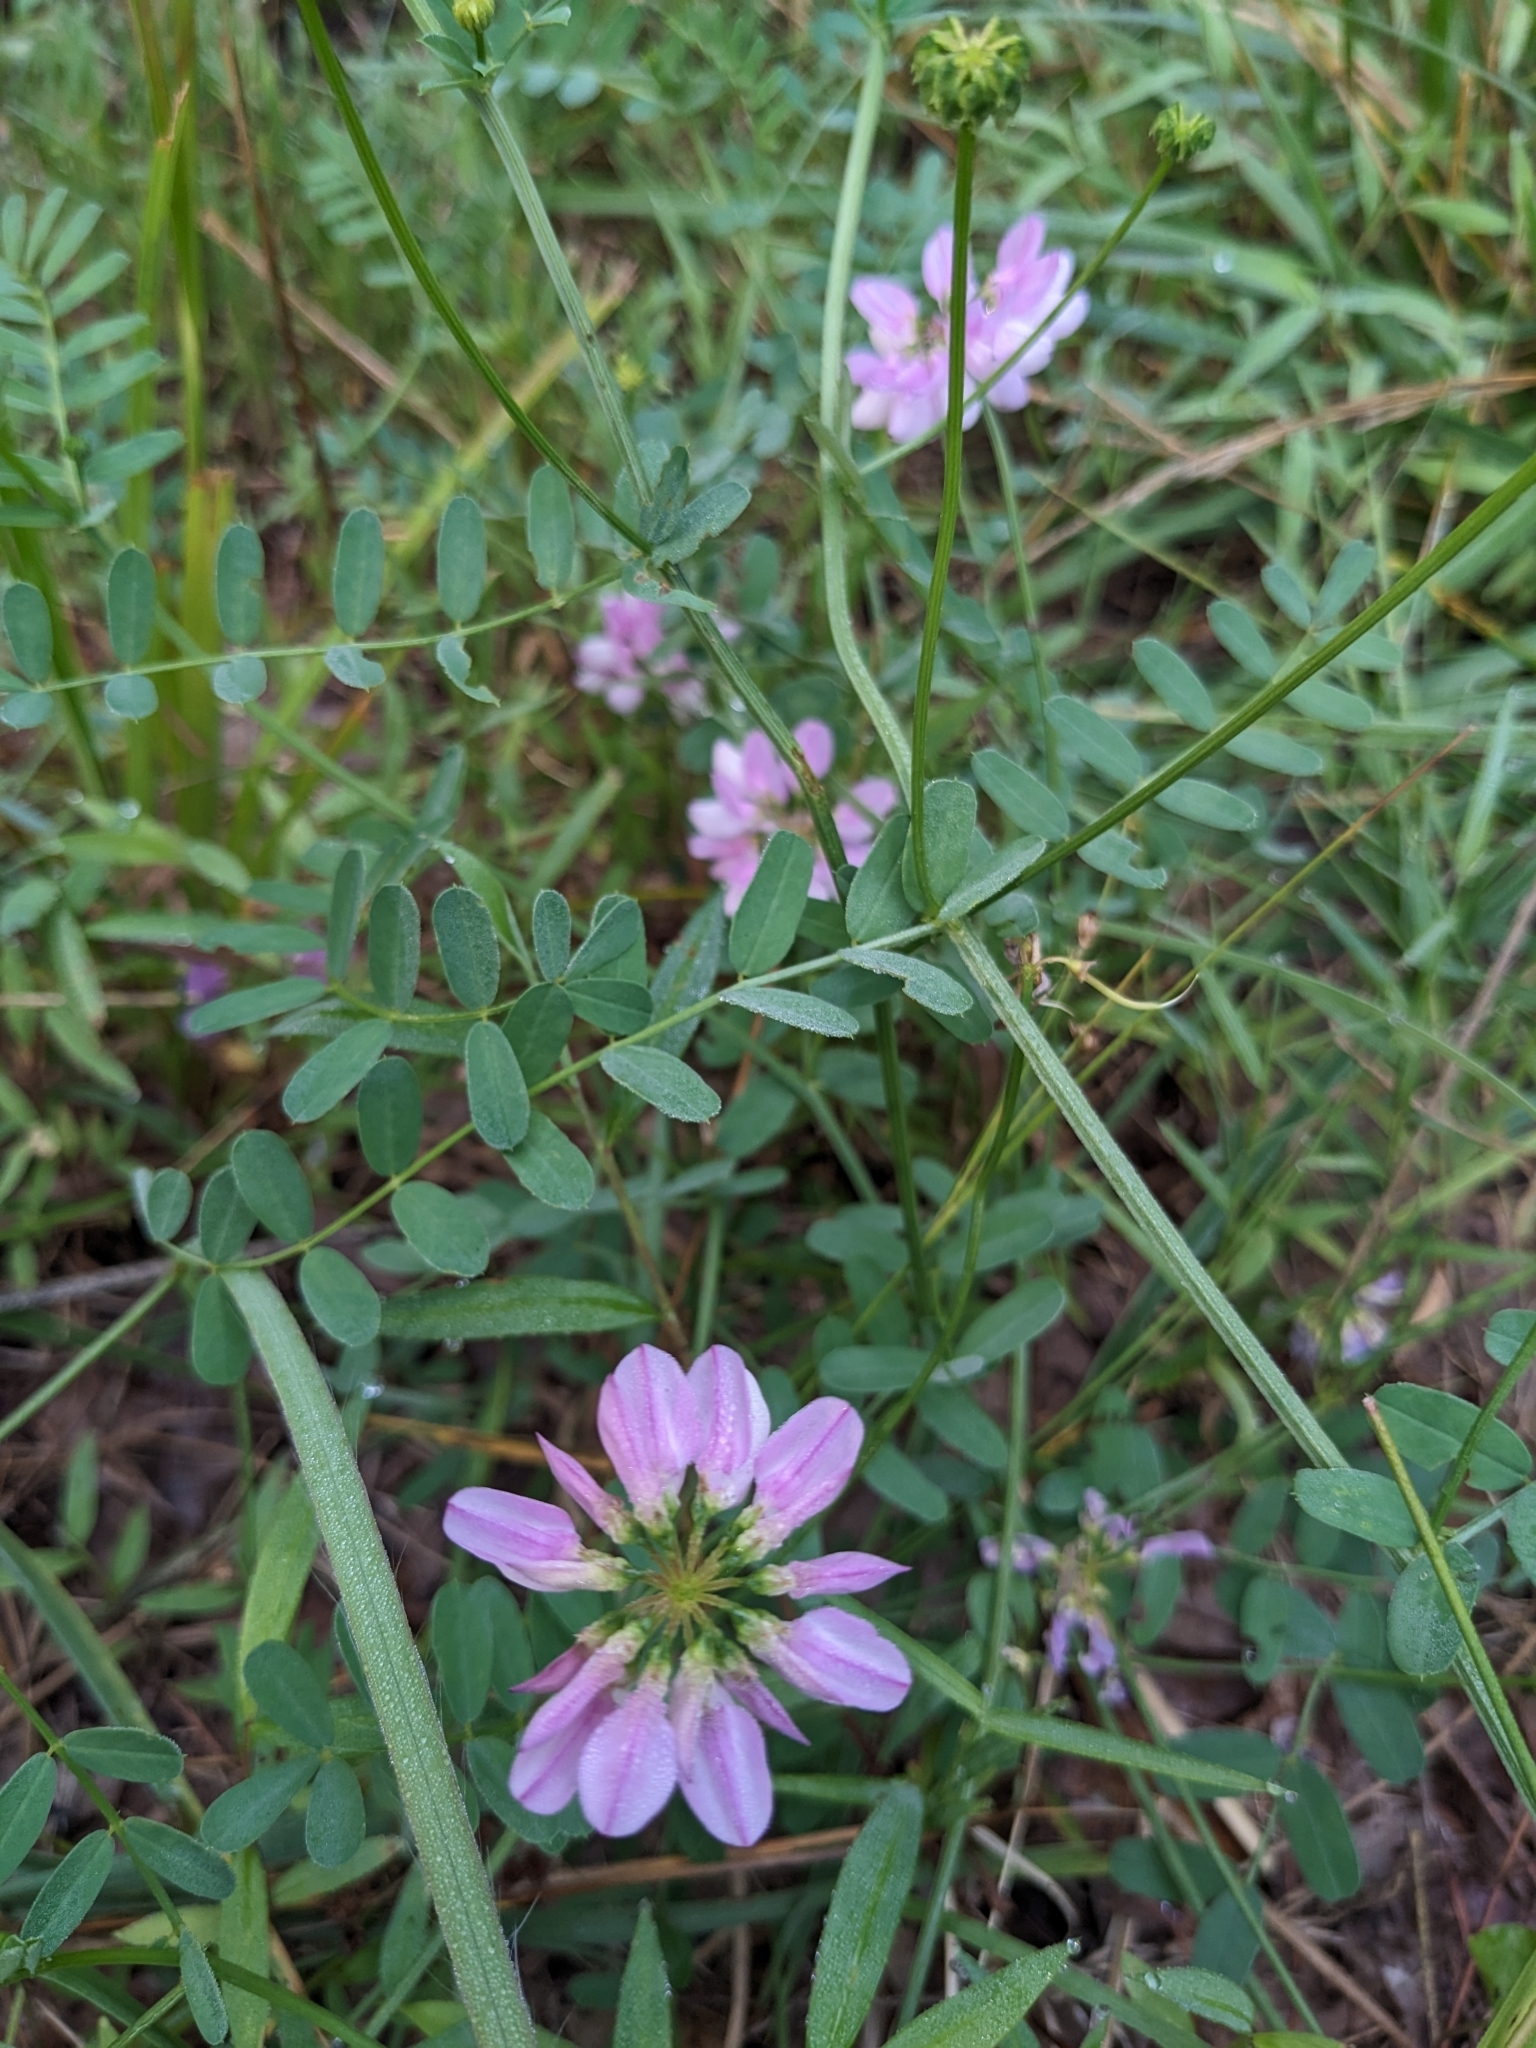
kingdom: Plantae
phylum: Tracheophyta
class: Magnoliopsida
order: Fabales
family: Fabaceae
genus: Coronilla
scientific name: Coronilla varia
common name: Crownvetch
